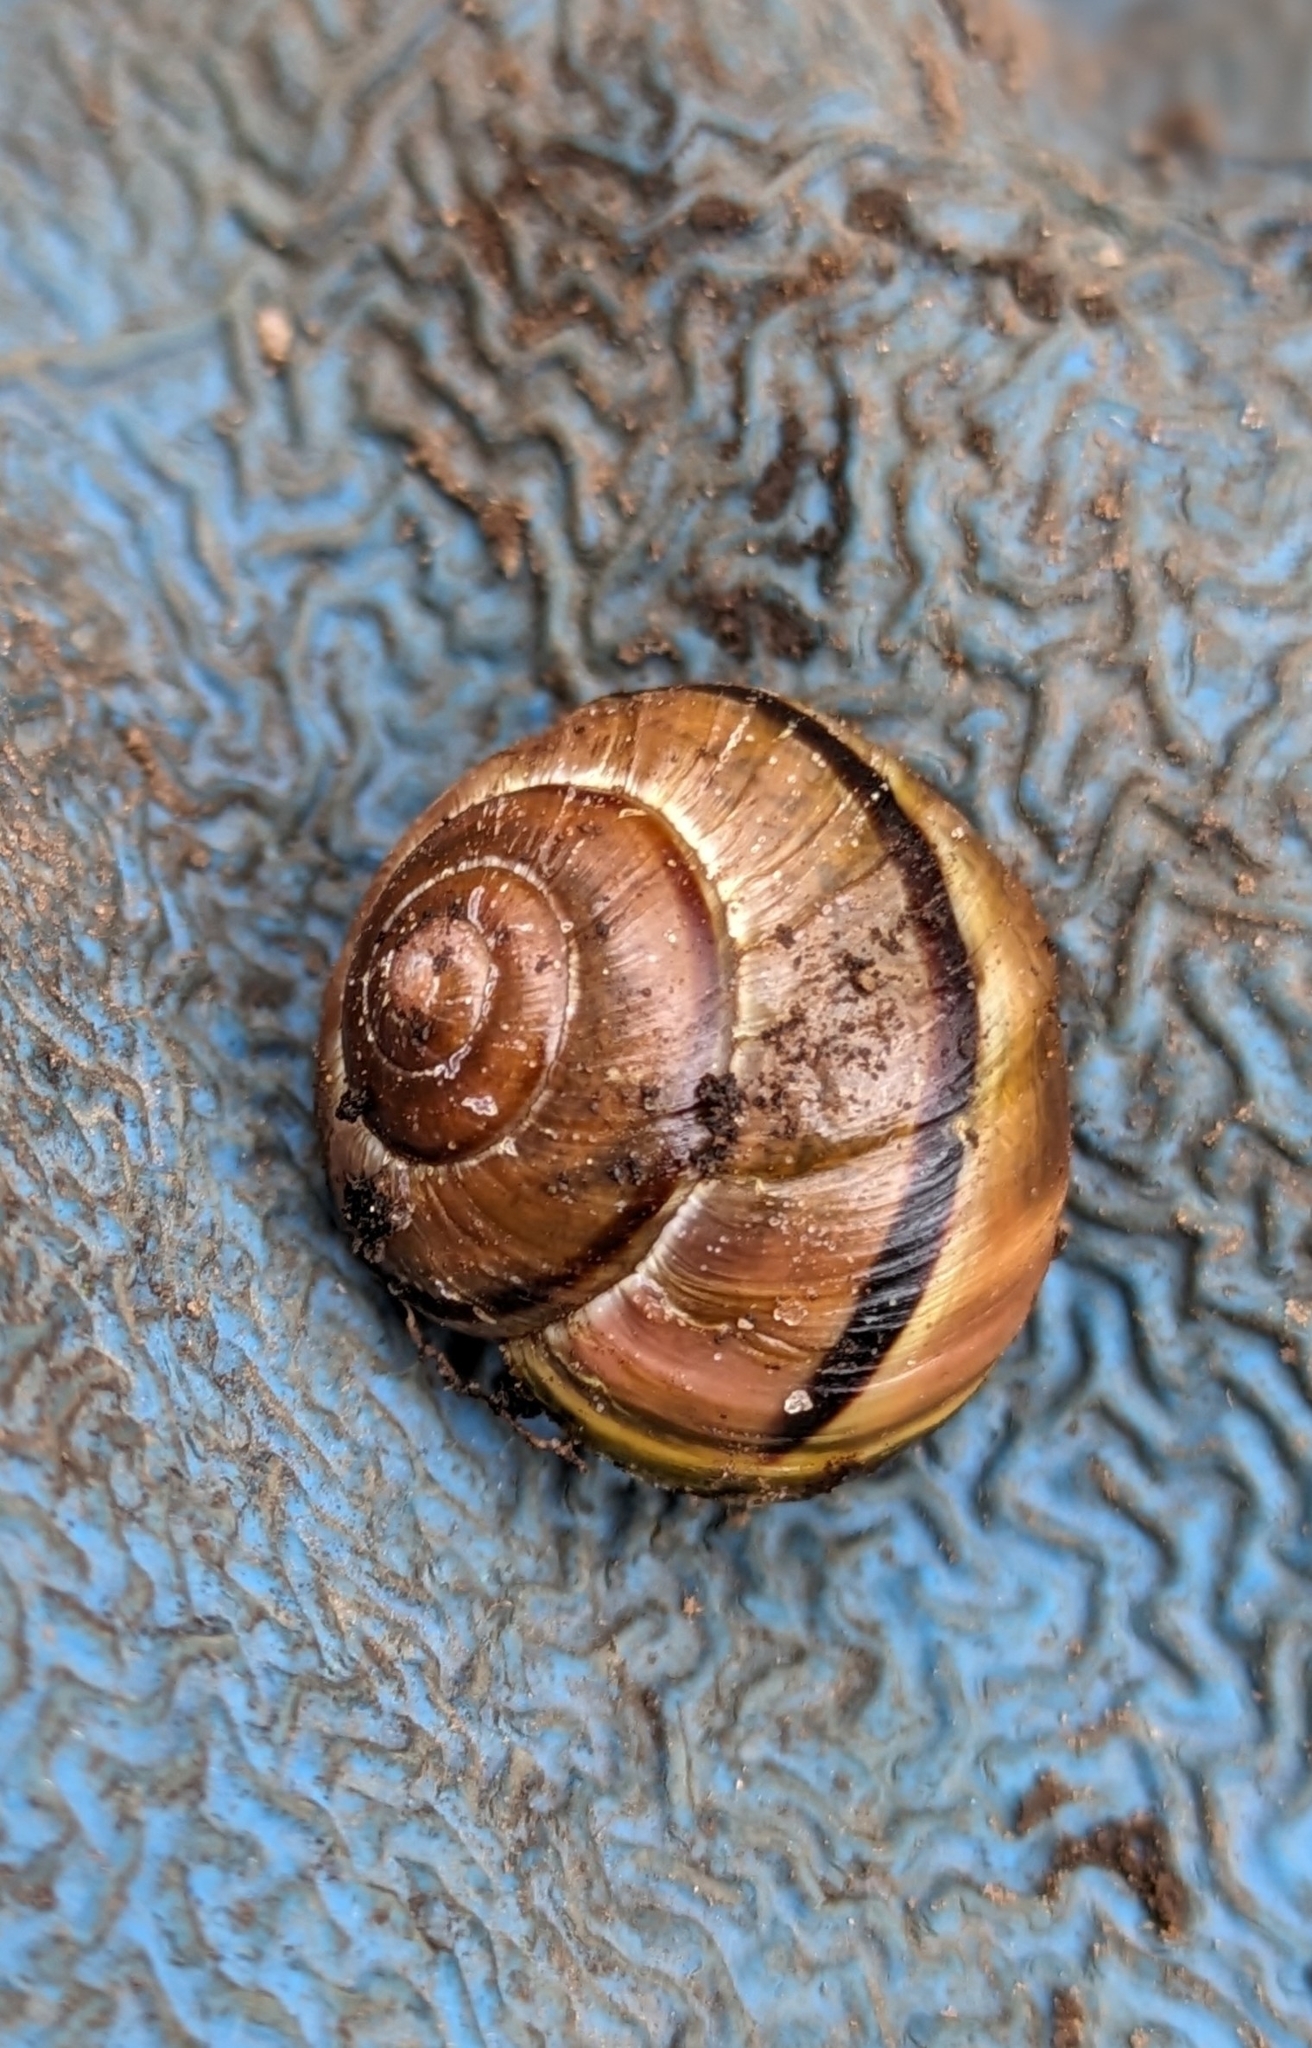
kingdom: Animalia
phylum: Mollusca
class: Gastropoda
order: Stylommatophora
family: Helicidae
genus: Cepaea
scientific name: Cepaea nemoralis
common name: Grovesnail
